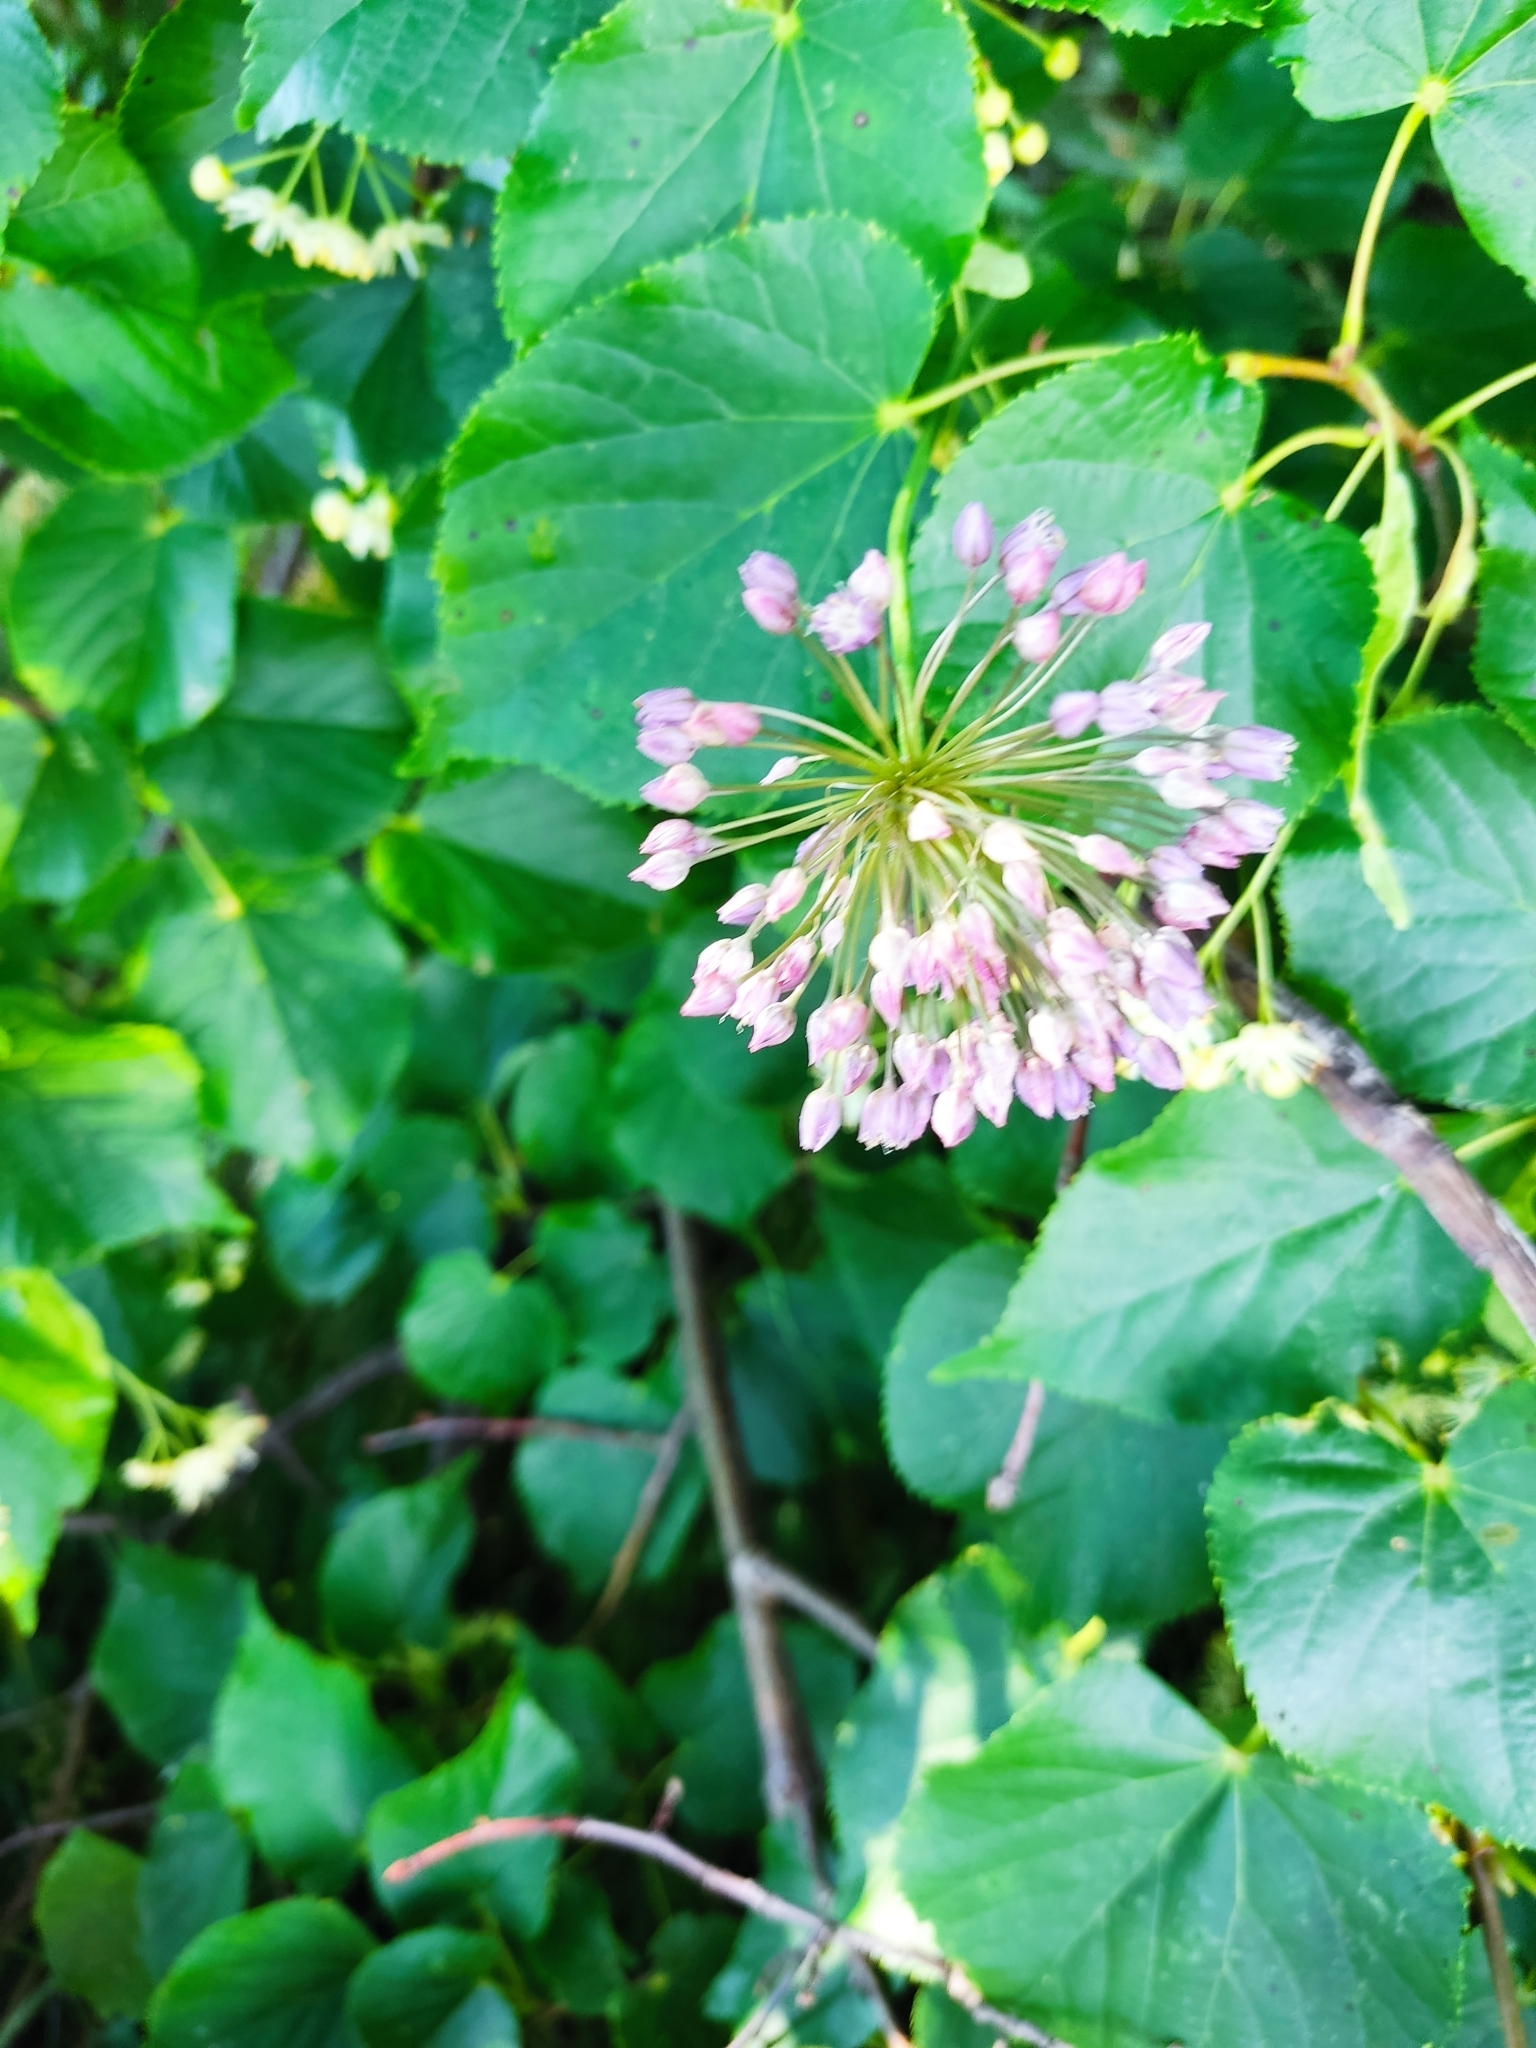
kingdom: Plantae
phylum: Tracheophyta
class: Liliopsida
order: Asparagales
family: Amaryllidaceae
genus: Allium
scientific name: Allium rotundum
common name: Sand leek
